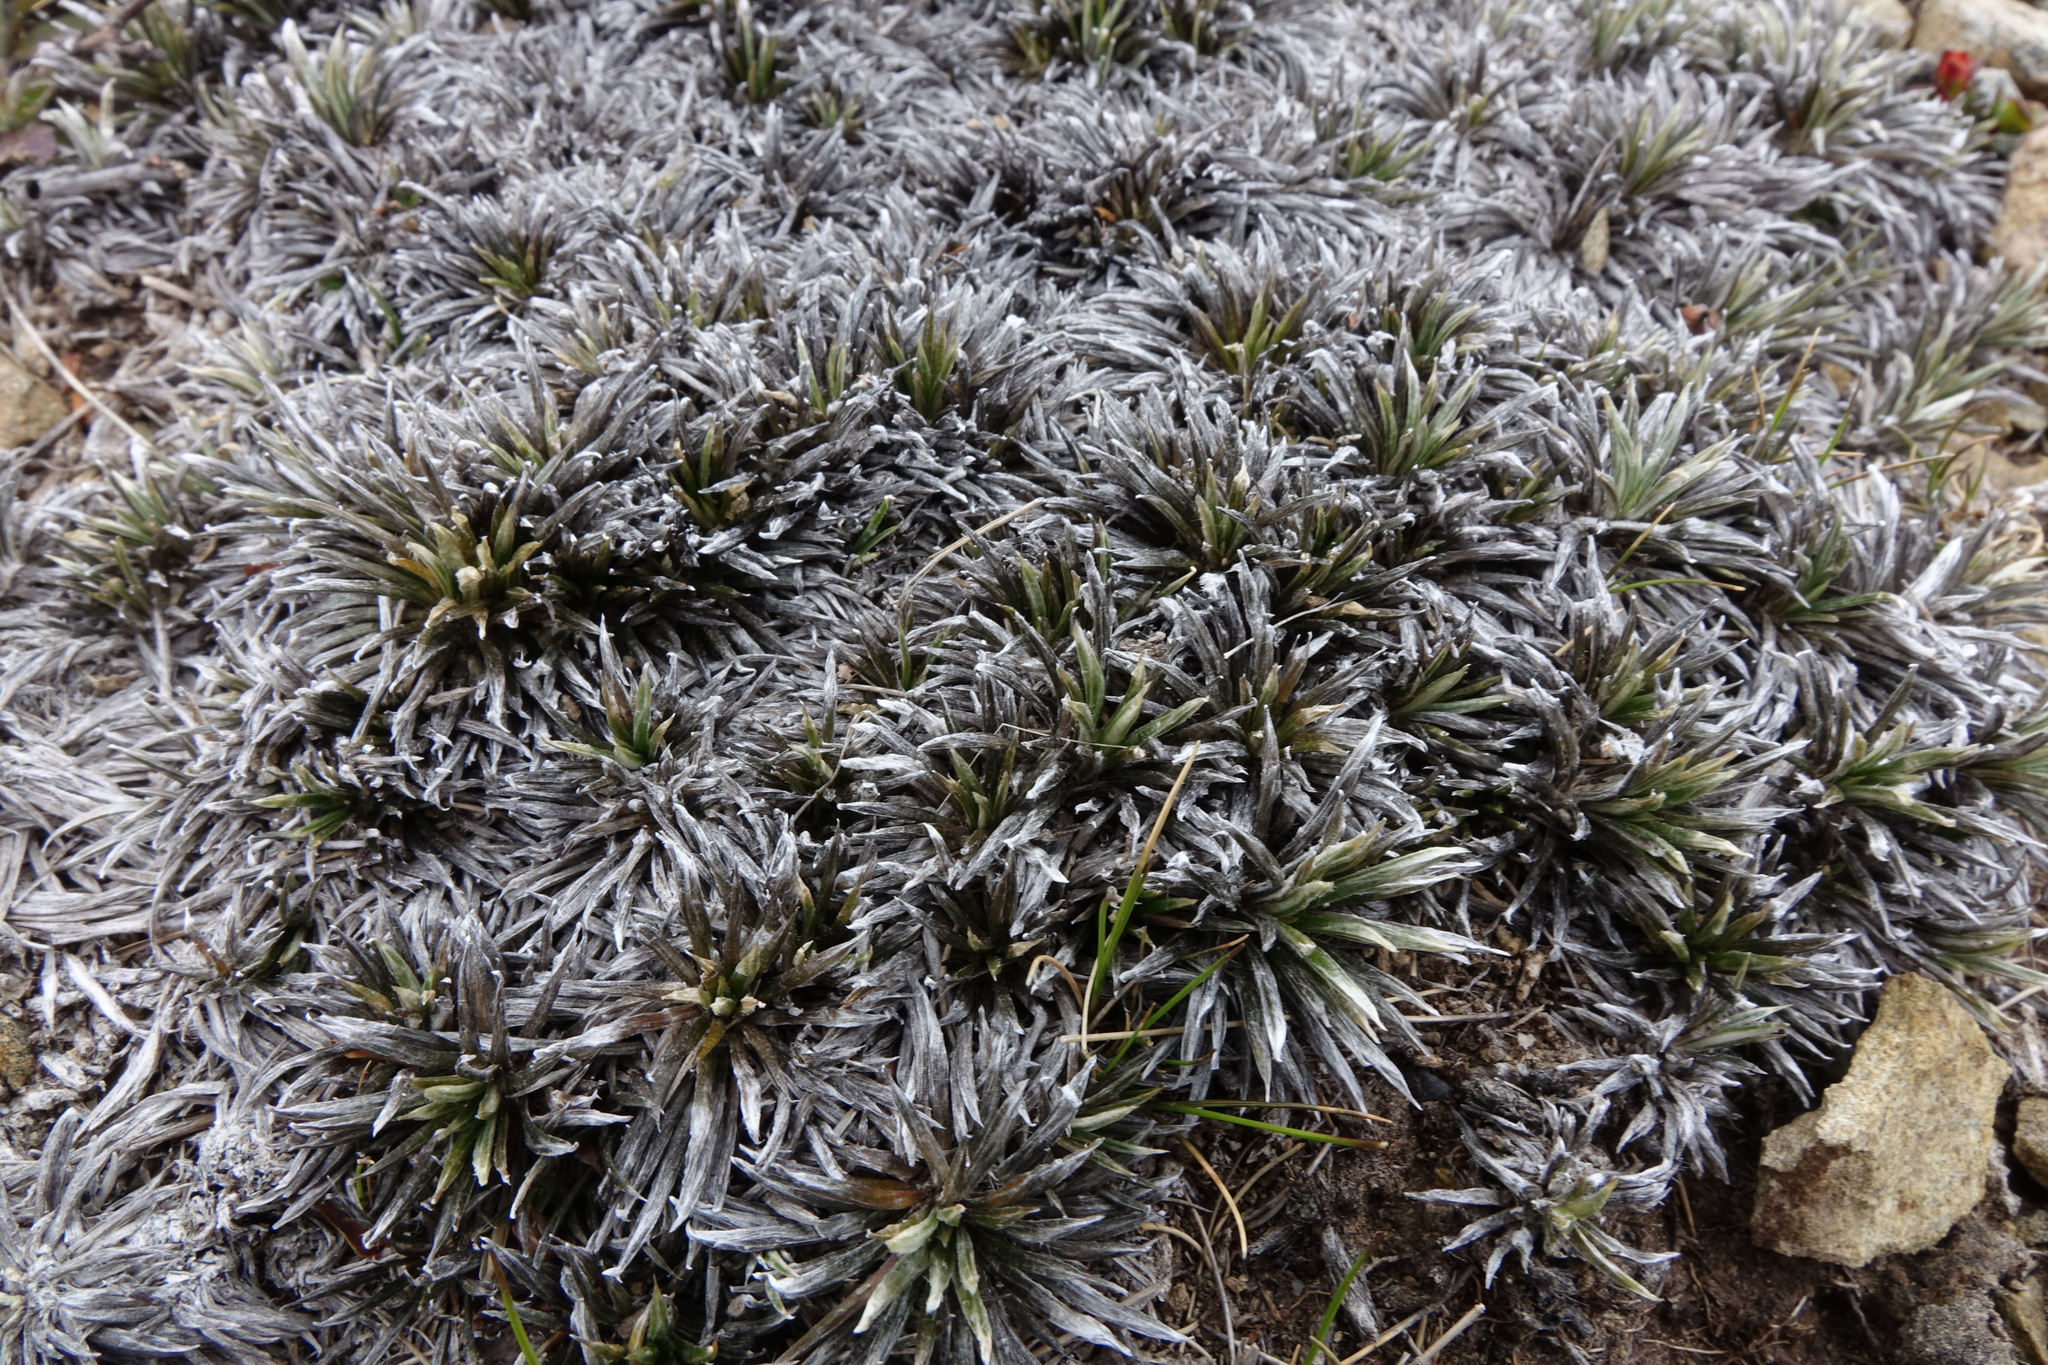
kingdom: Plantae
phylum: Tracheophyta
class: Magnoliopsida
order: Asterales
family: Asteraceae
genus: Celmisia
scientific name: Celmisia laricifolia
